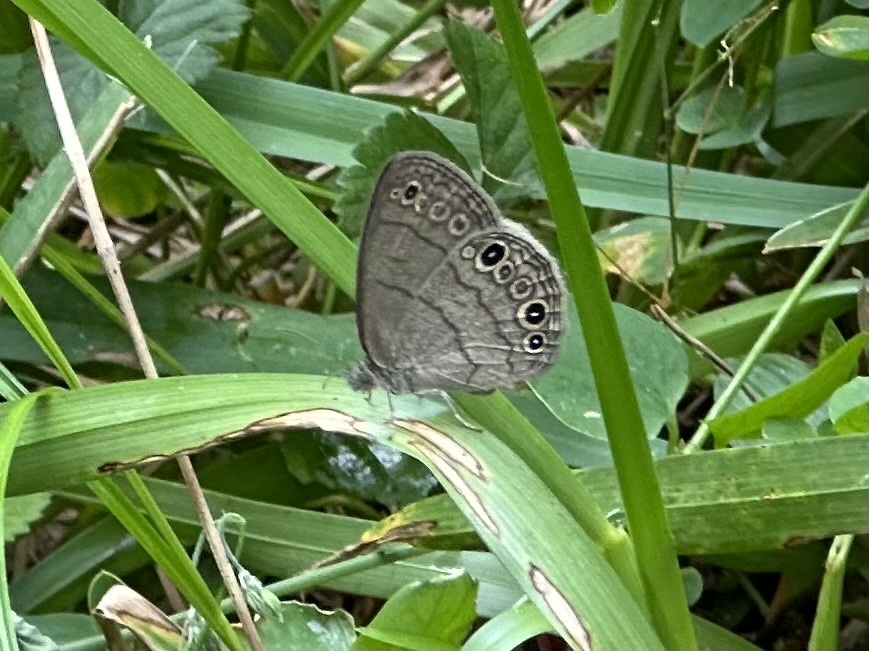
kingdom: Animalia
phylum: Arthropoda
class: Insecta
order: Lepidoptera
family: Nymphalidae
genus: Hermeuptychia
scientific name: Hermeuptychia hermes
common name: Hermes satyr
